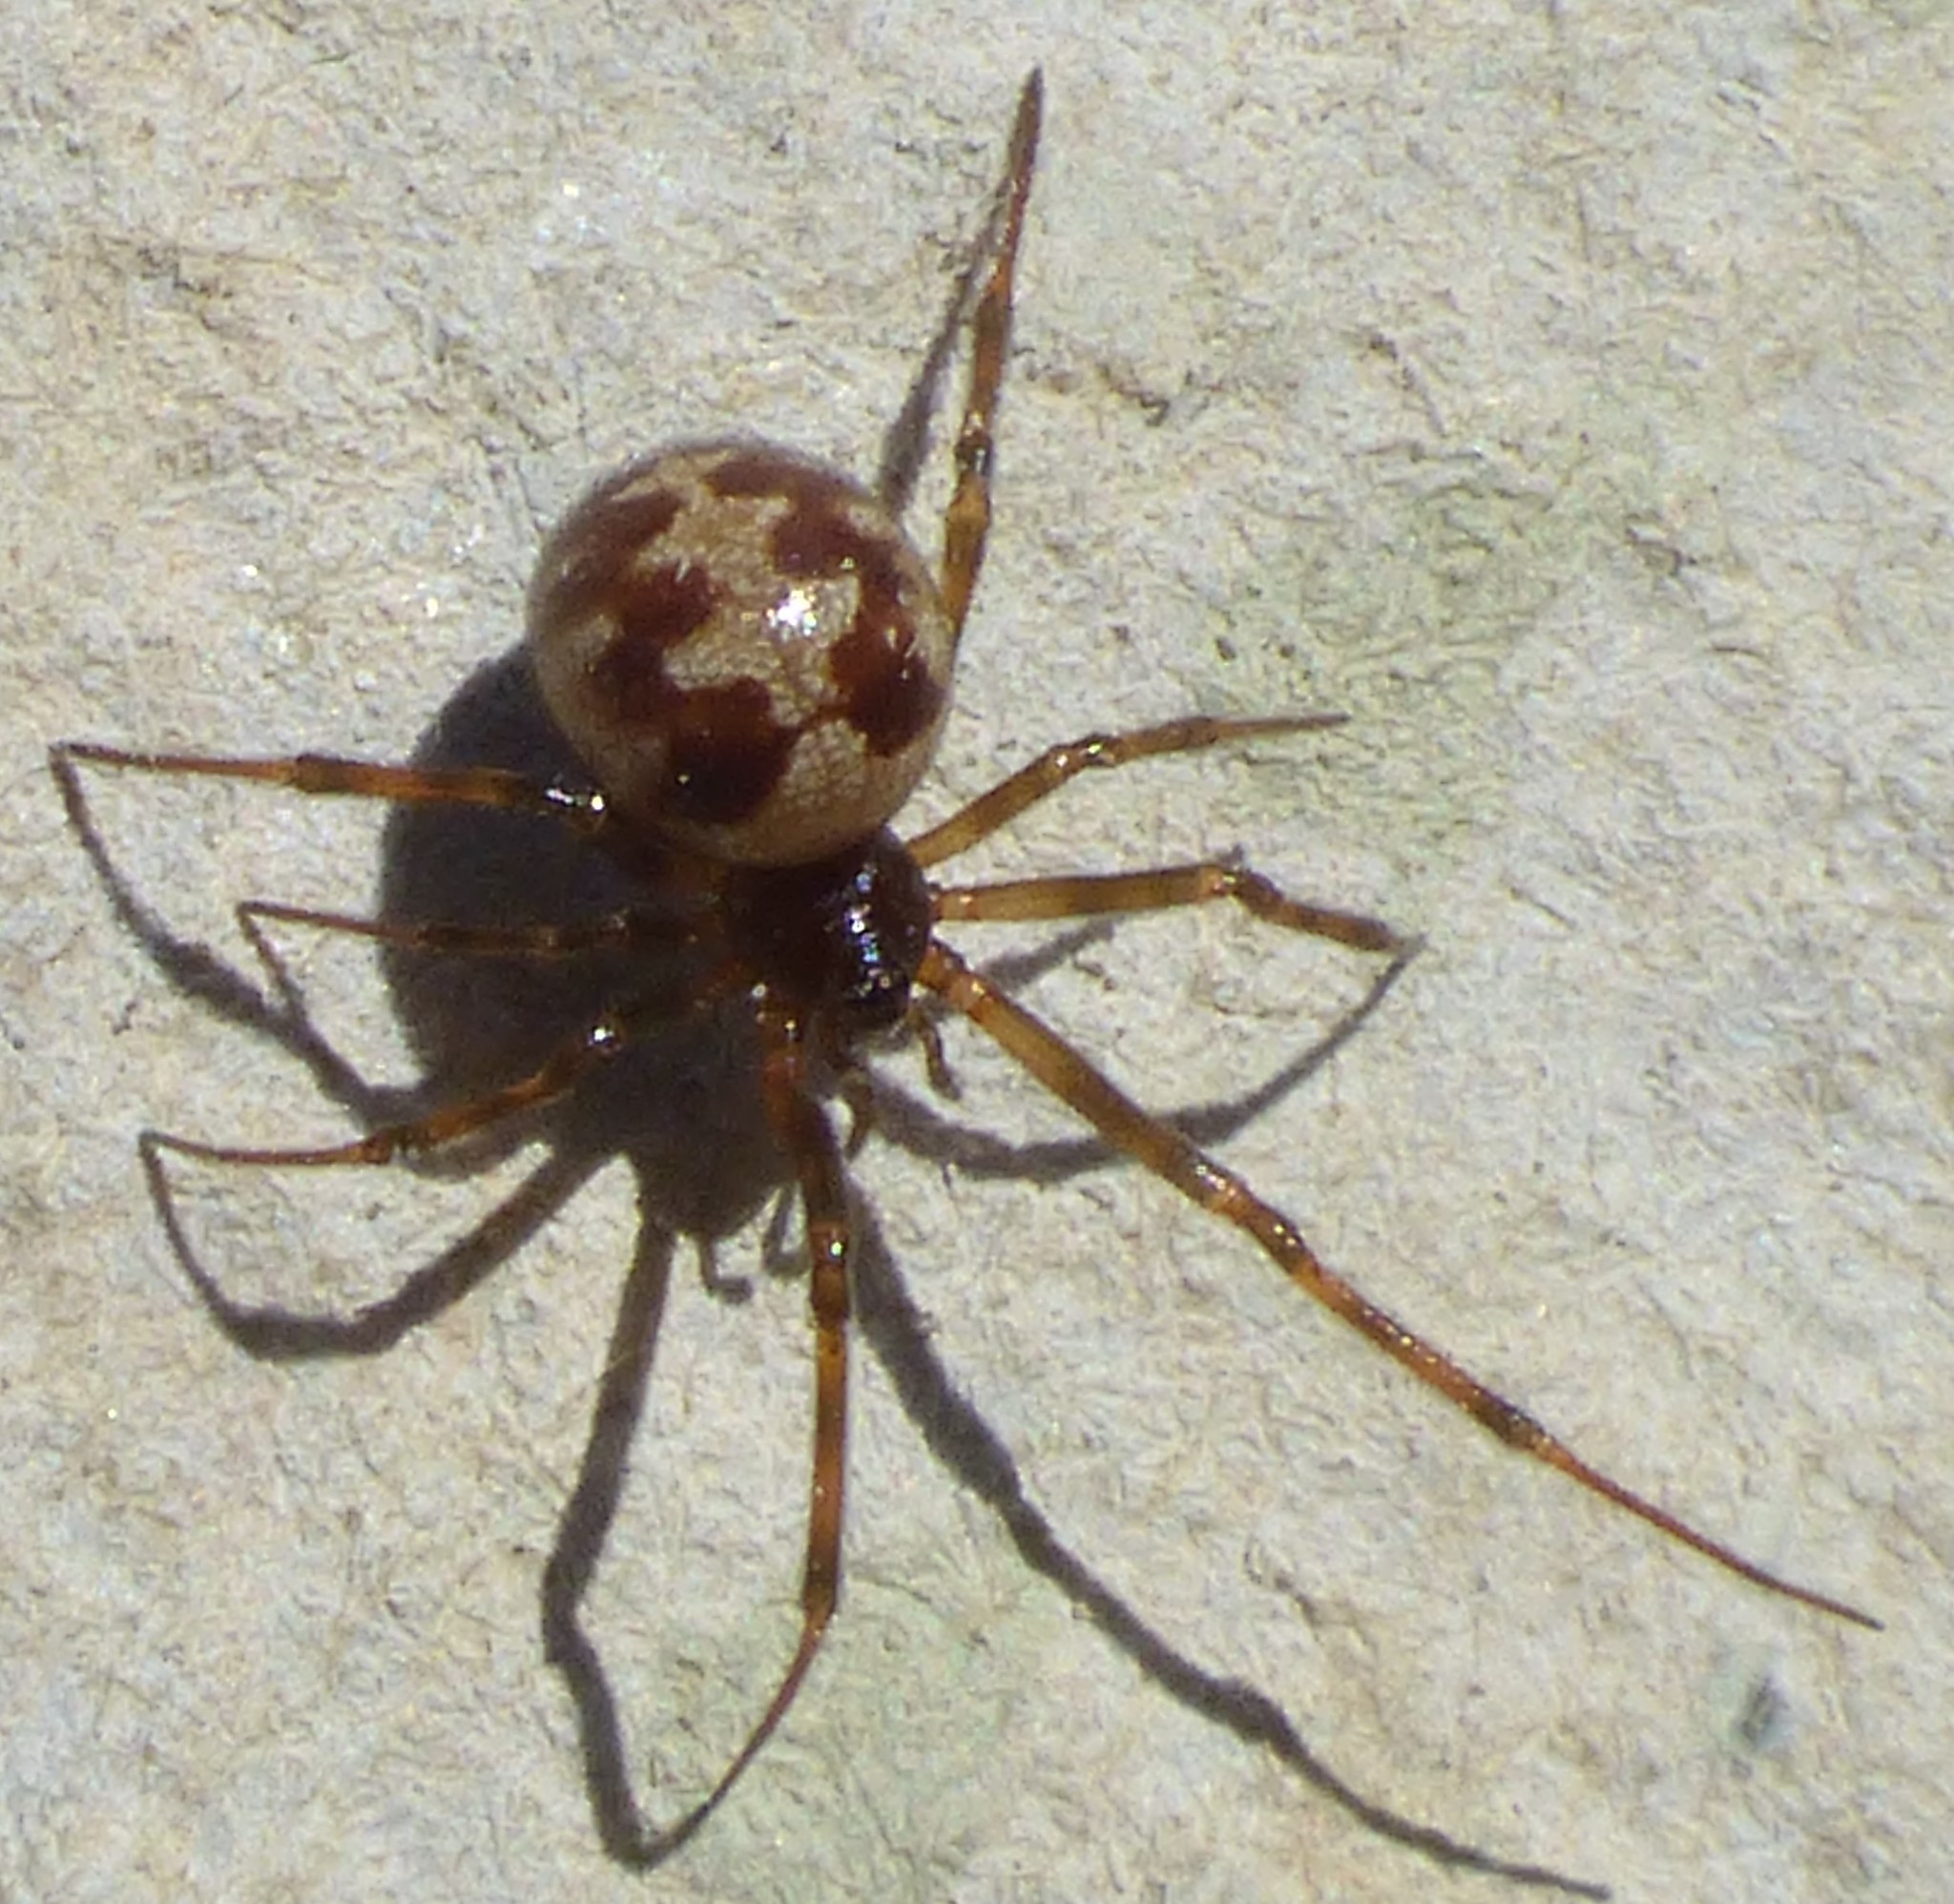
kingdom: Animalia
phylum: Arthropoda
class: Arachnida
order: Araneae
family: Theridiidae
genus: Steatoda
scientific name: Steatoda triangulosa
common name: Triangulate bud spider
